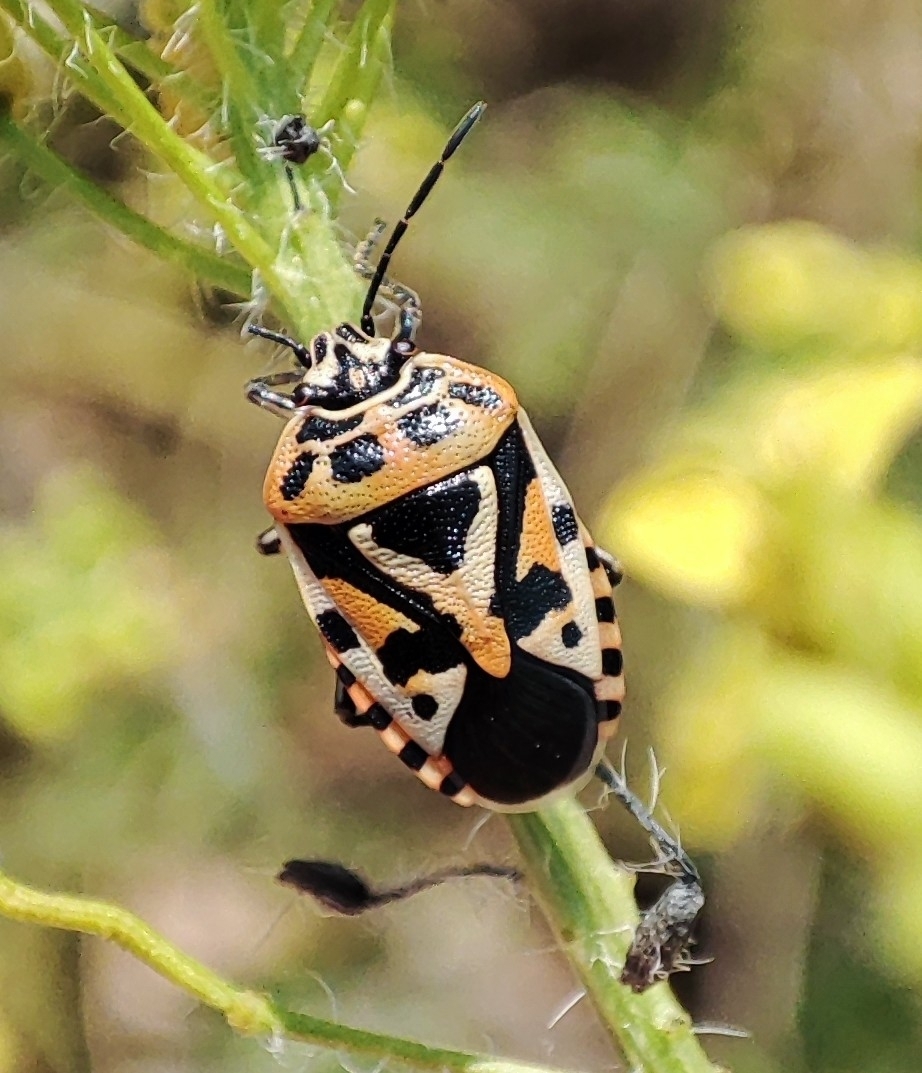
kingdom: Animalia
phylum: Arthropoda
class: Insecta
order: Hemiptera
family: Pentatomidae
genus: Eurydema
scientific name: Eurydema ventralis
